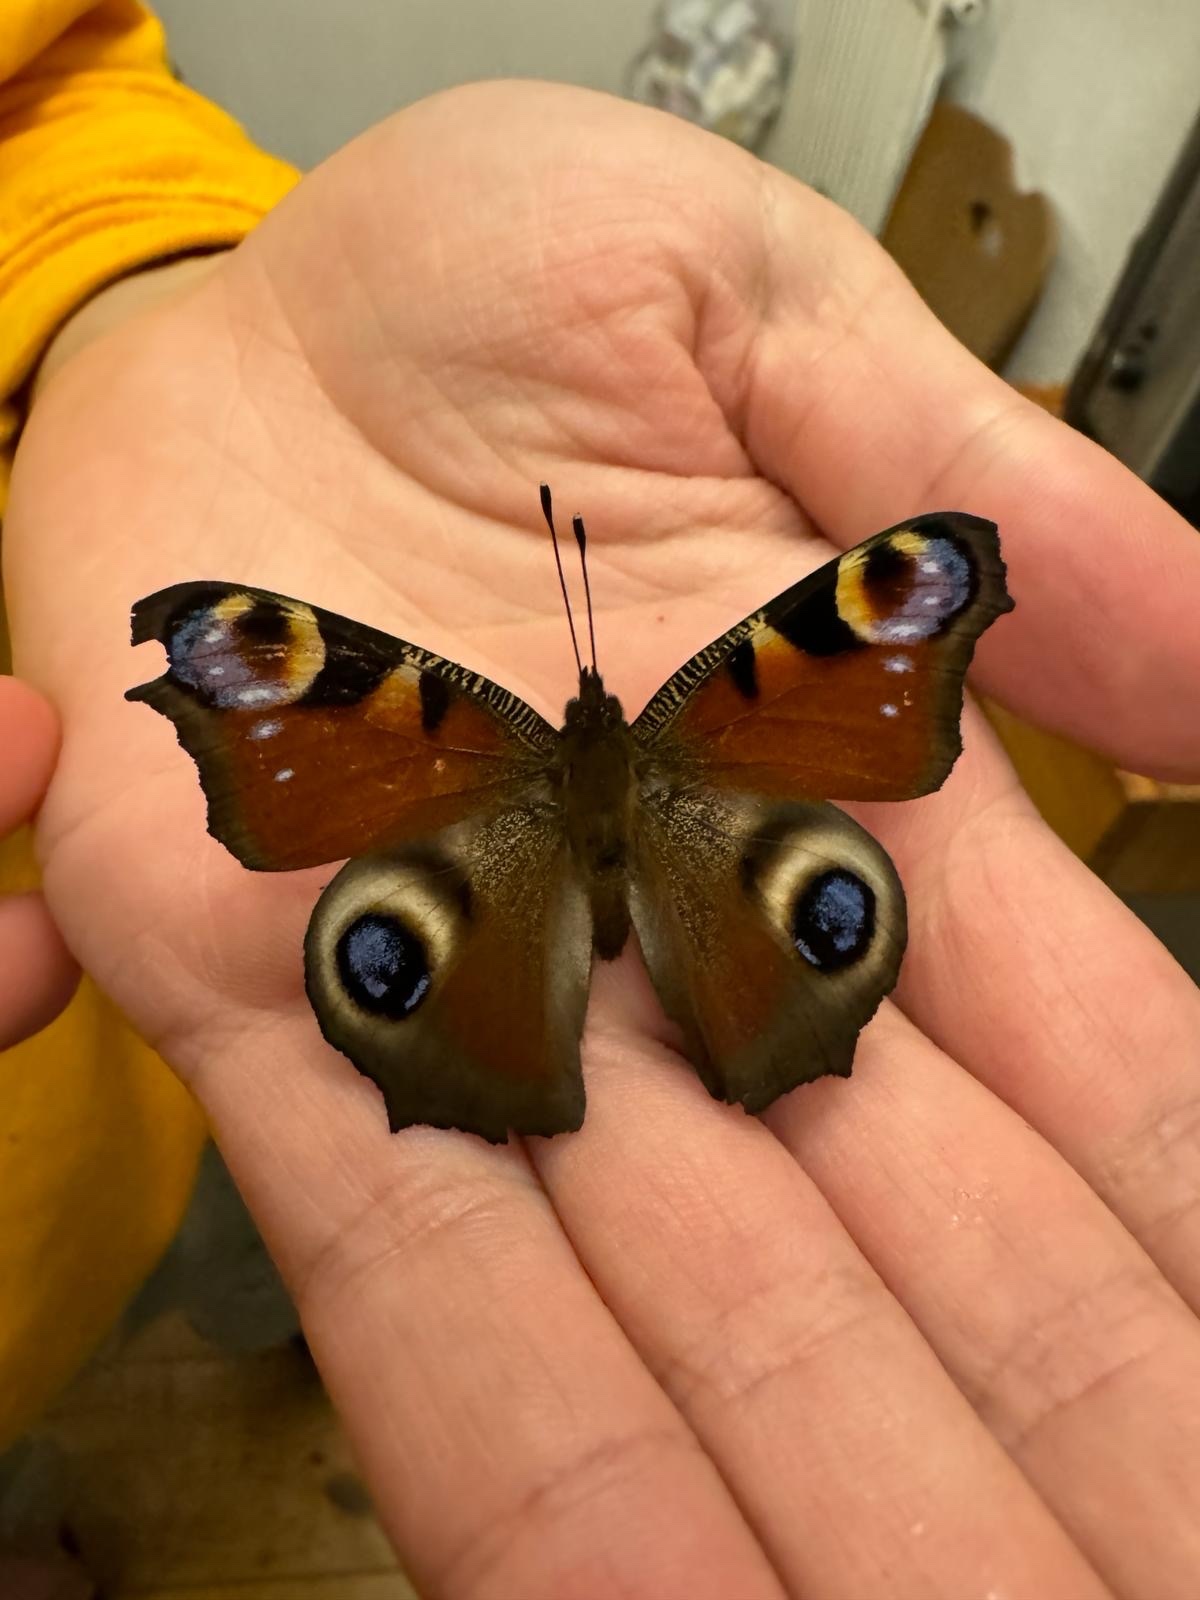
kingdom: Animalia
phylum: Arthropoda
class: Insecta
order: Lepidoptera
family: Nymphalidae
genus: Aglais
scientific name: Aglais io
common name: Peacock
